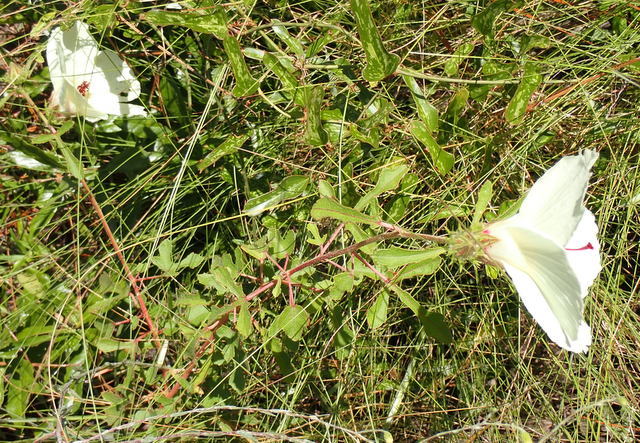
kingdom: Plantae
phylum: Tracheophyta
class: Magnoliopsida
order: Malvales
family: Malvaceae
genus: Hibiscus
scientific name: Hibiscus aculeatus
